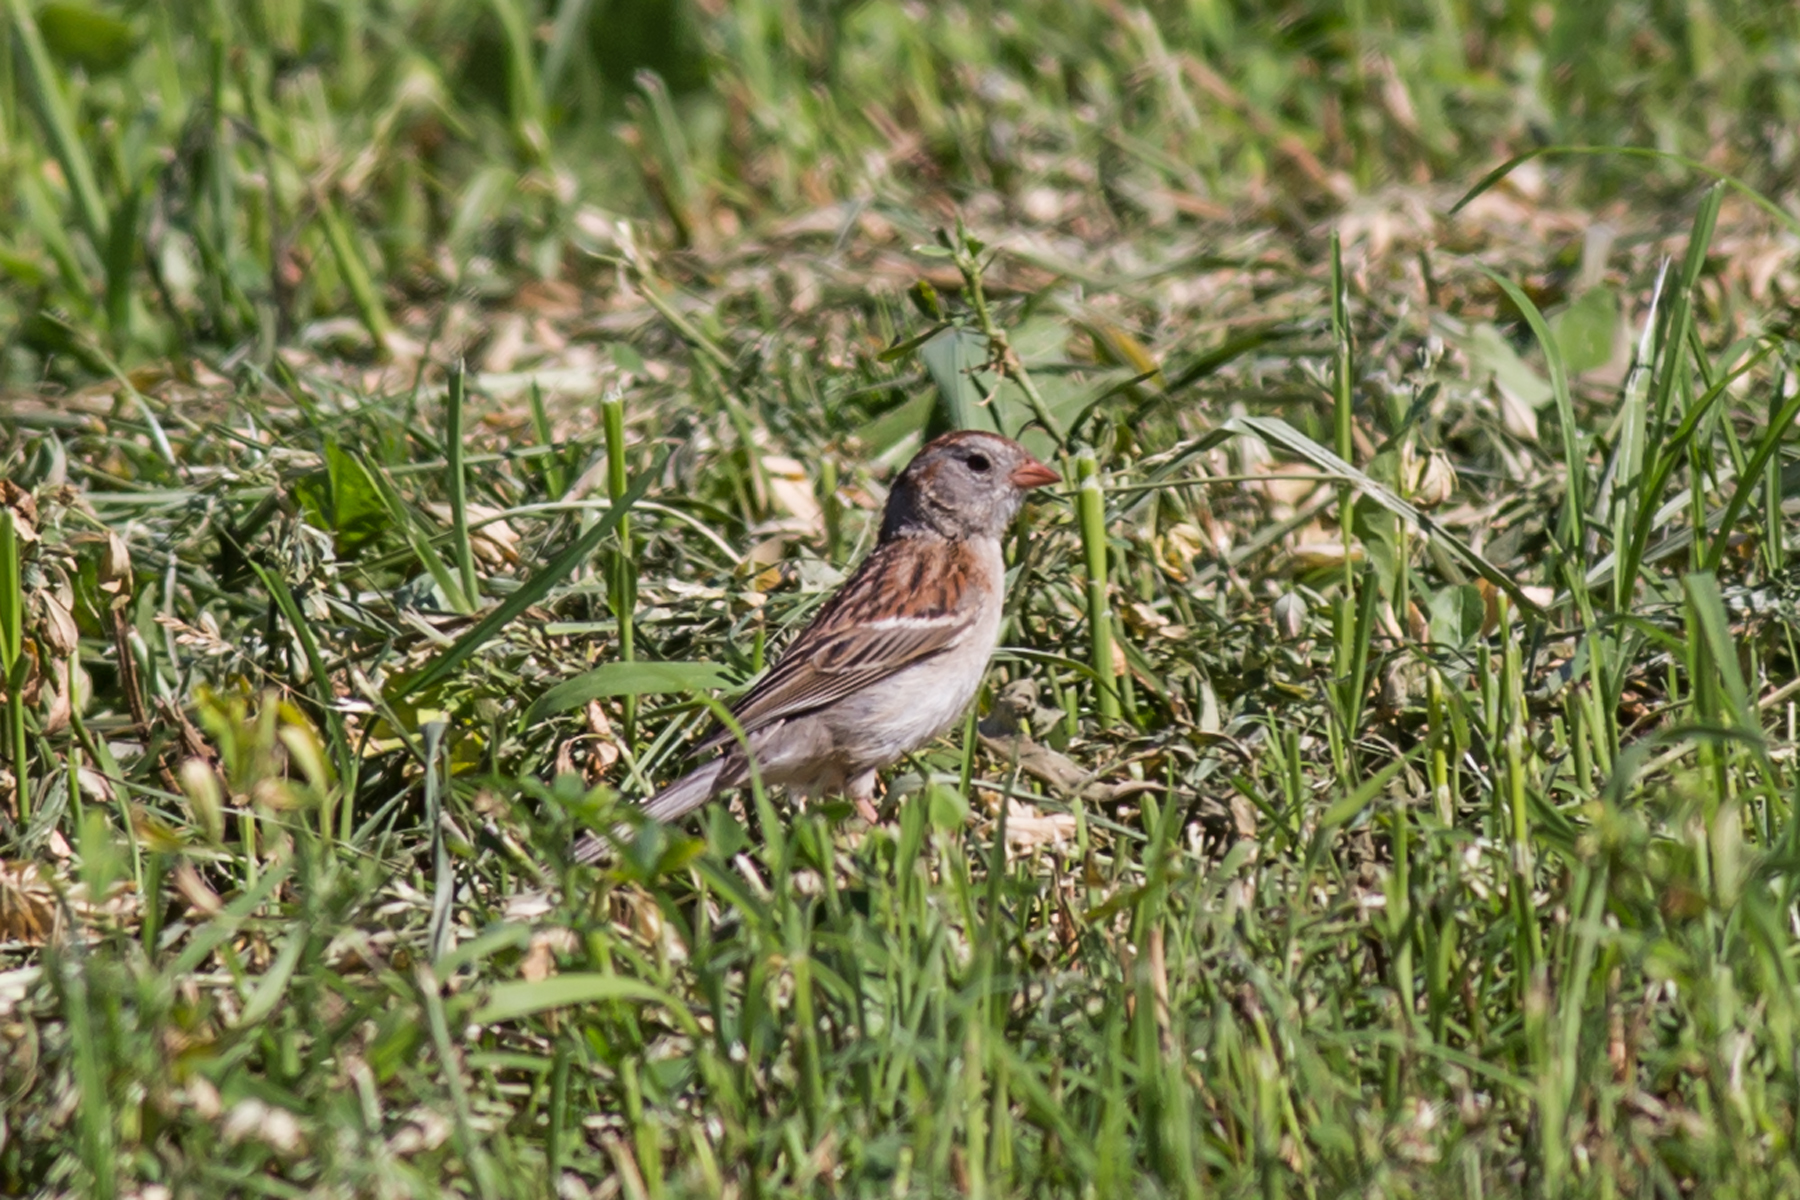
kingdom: Animalia
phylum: Chordata
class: Aves
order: Passeriformes
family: Passerellidae
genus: Spizella
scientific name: Spizella pusilla
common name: Field sparrow
